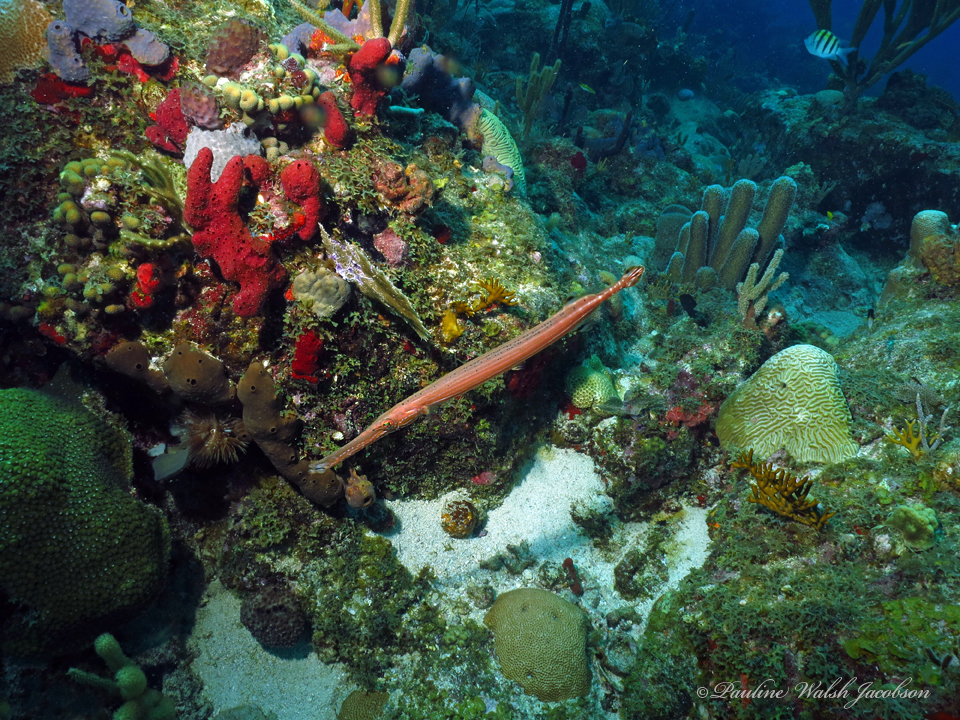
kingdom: Animalia
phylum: Chordata
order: Syngnathiformes
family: Aulostomidae
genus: Aulostomus
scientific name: Aulostomus maculatus
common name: West atlantic trumpetfish
